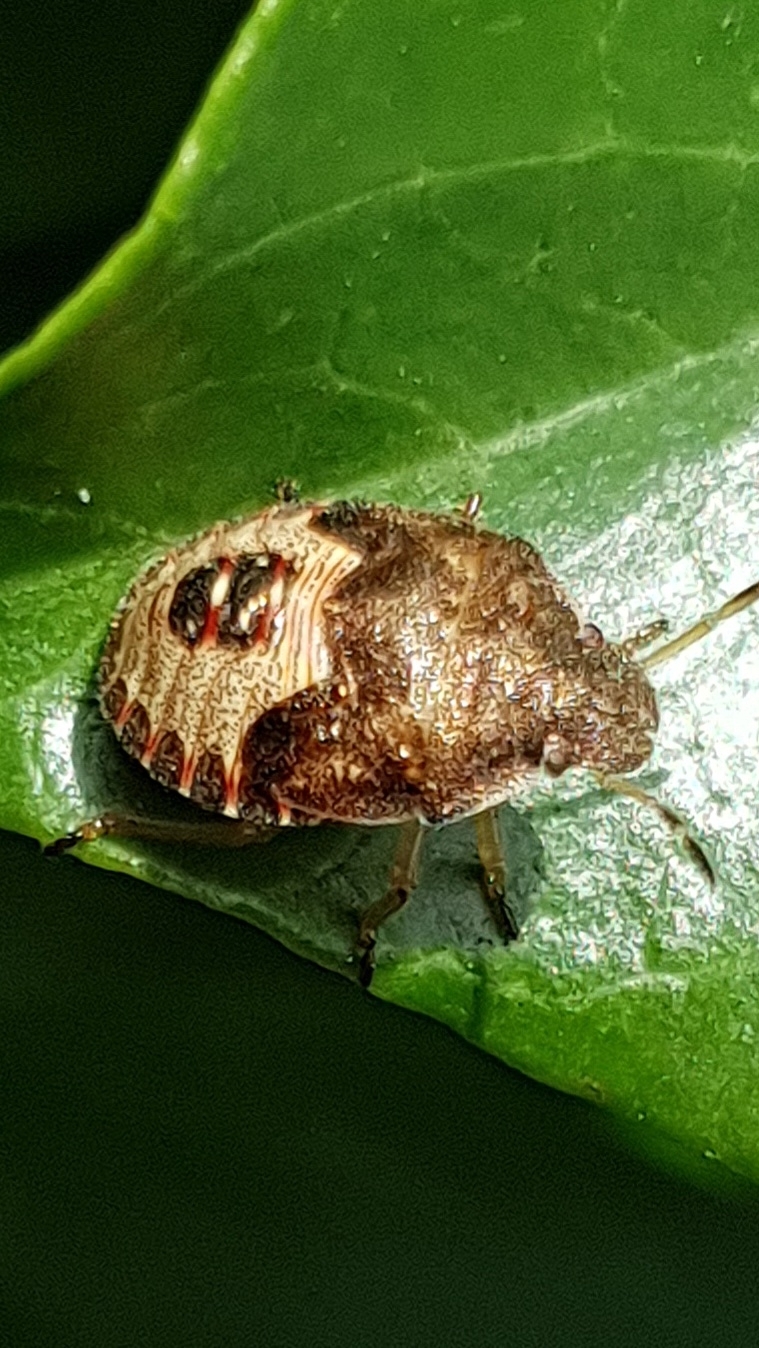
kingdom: Animalia
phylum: Arthropoda
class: Insecta
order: Hemiptera
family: Pentatomidae
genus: Holcostethus
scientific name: Holcostethus strictus
